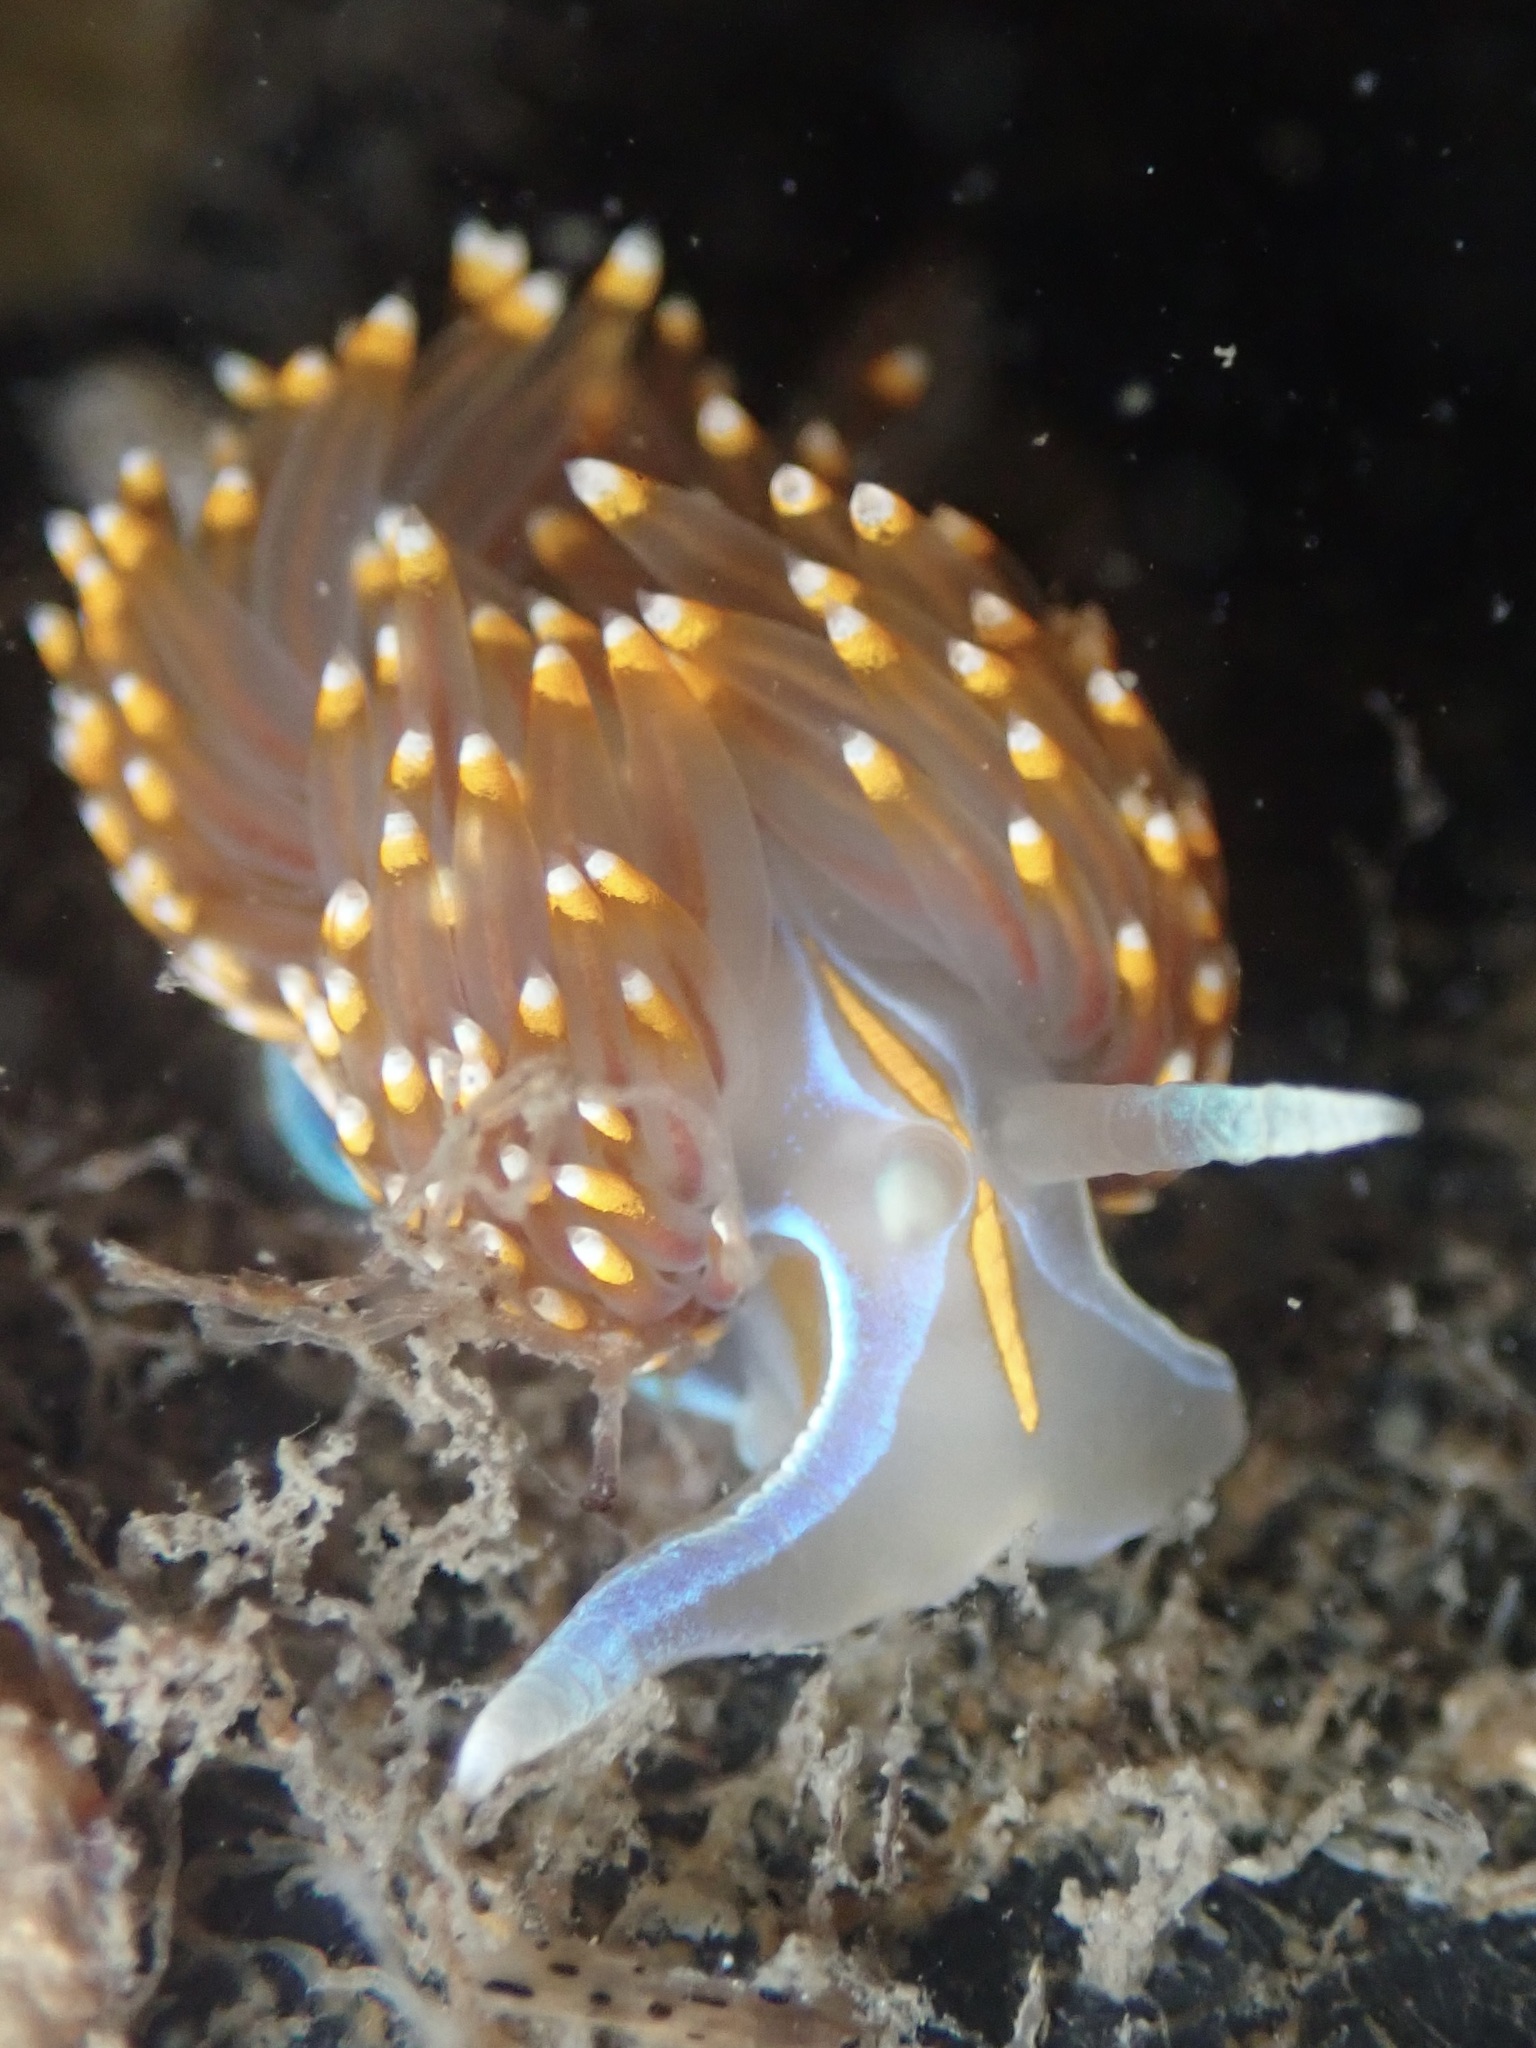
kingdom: Animalia
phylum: Mollusca
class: Gastropoda
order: Nudibranchia
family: Myrrhinidae
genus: Hermissenda
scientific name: Hermissenda opalescens
